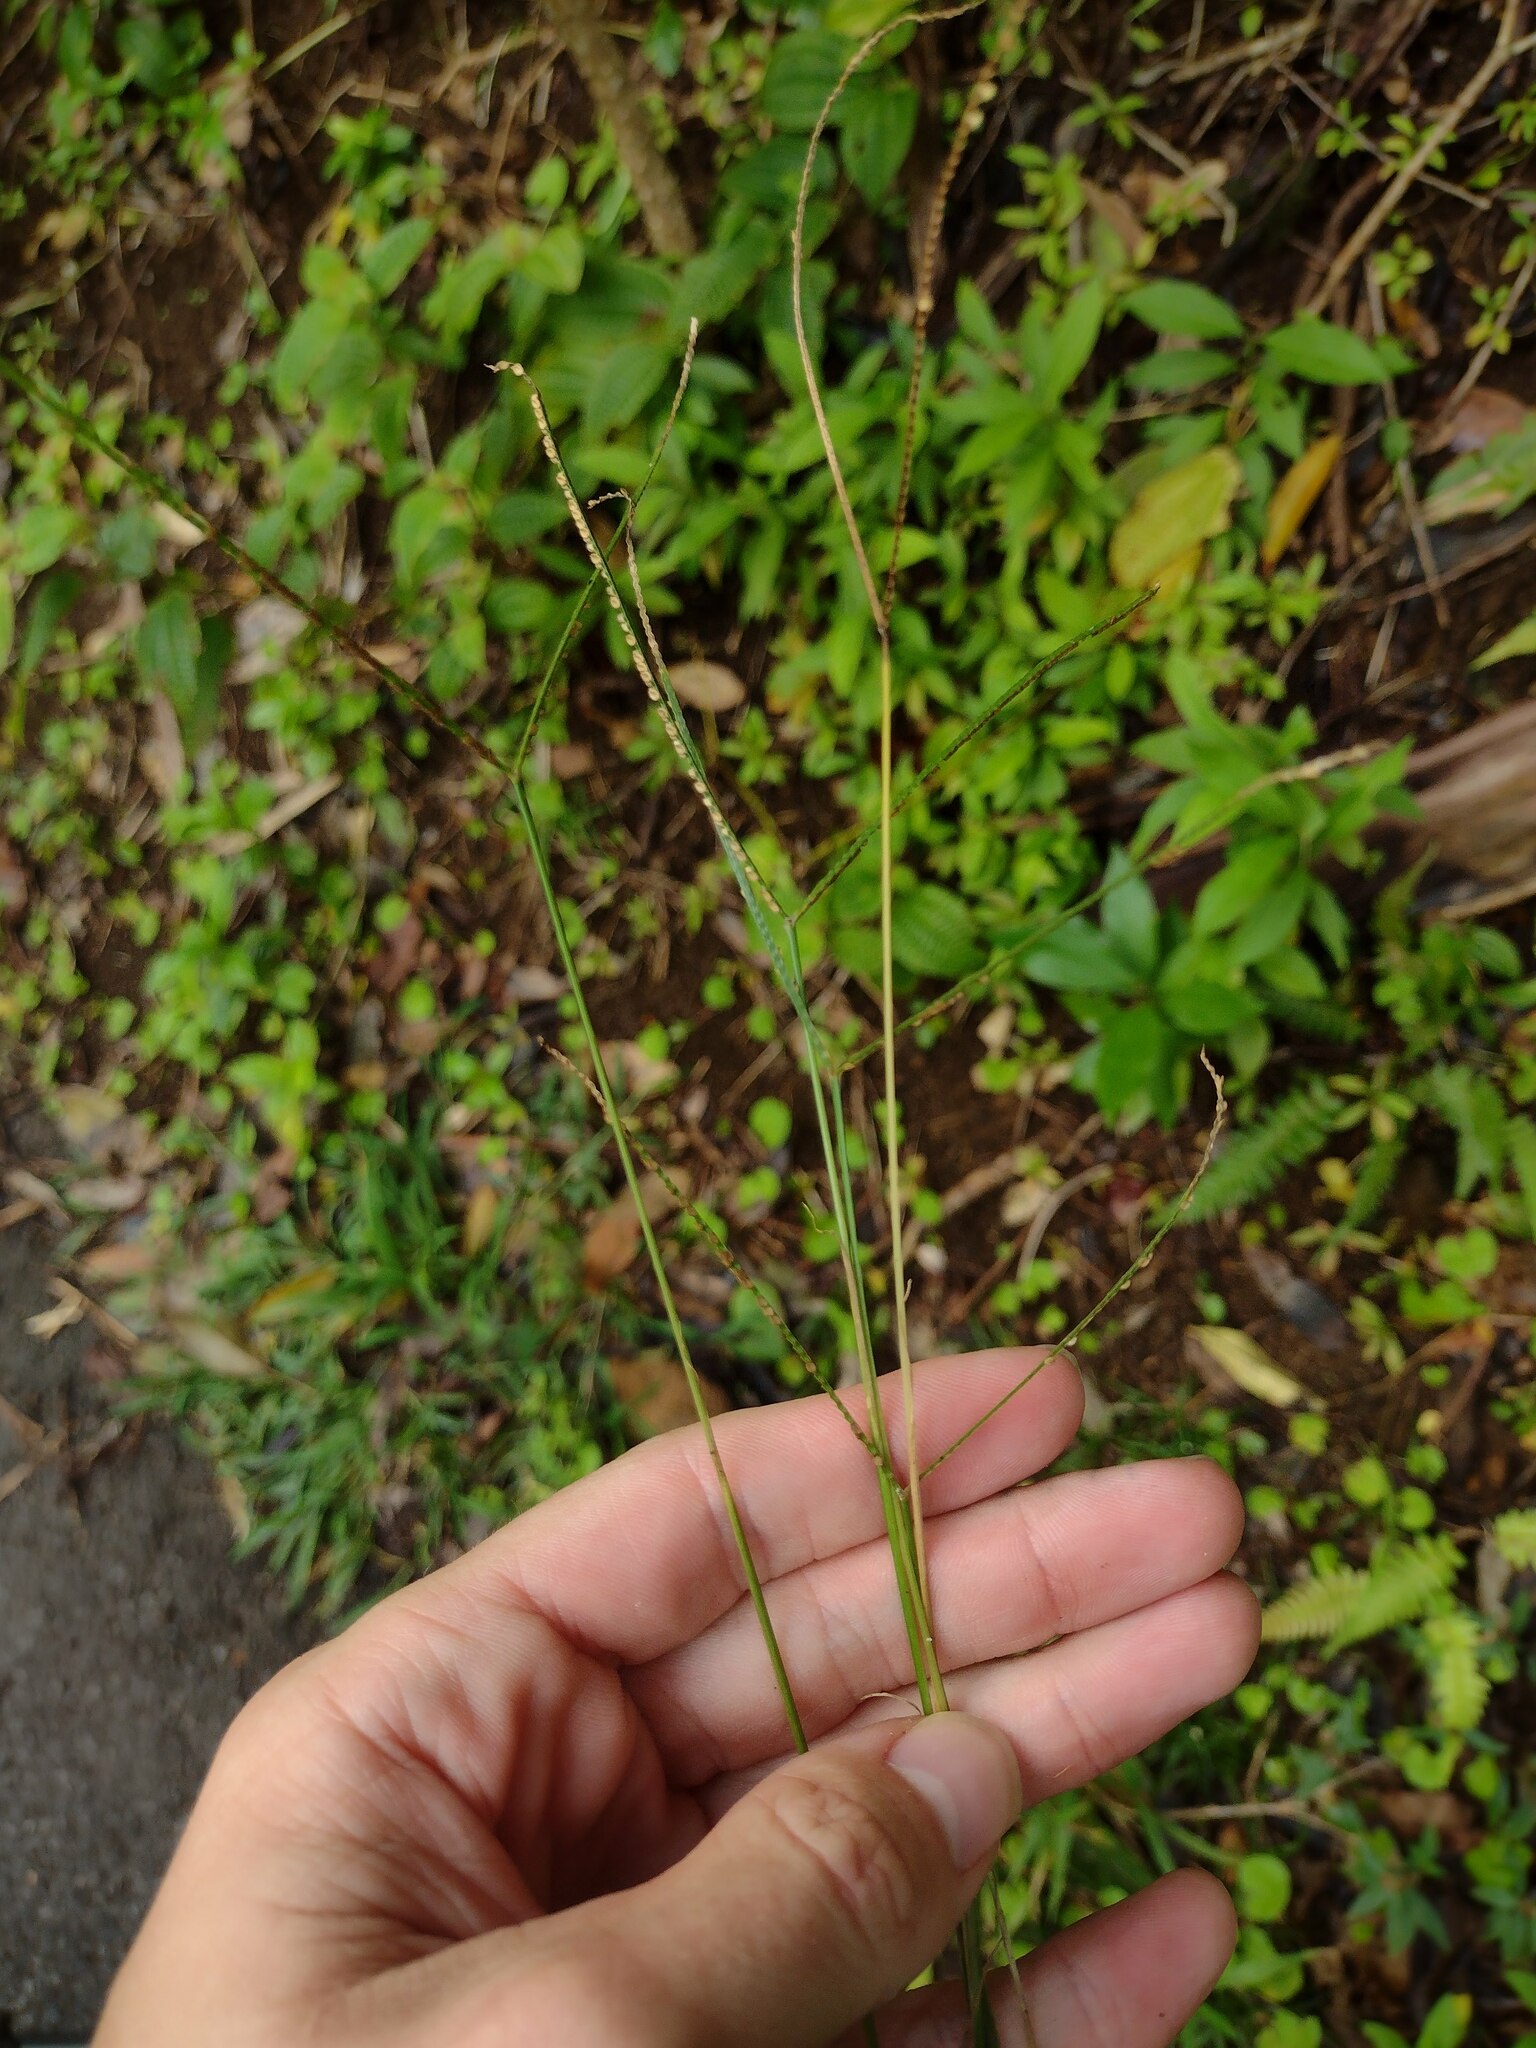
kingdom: Plantae
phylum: Tracheophyta
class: Liliopsida
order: Poales
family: Poaceae
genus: Paspalum
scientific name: Paspalum conjugatum
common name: Hilograss
